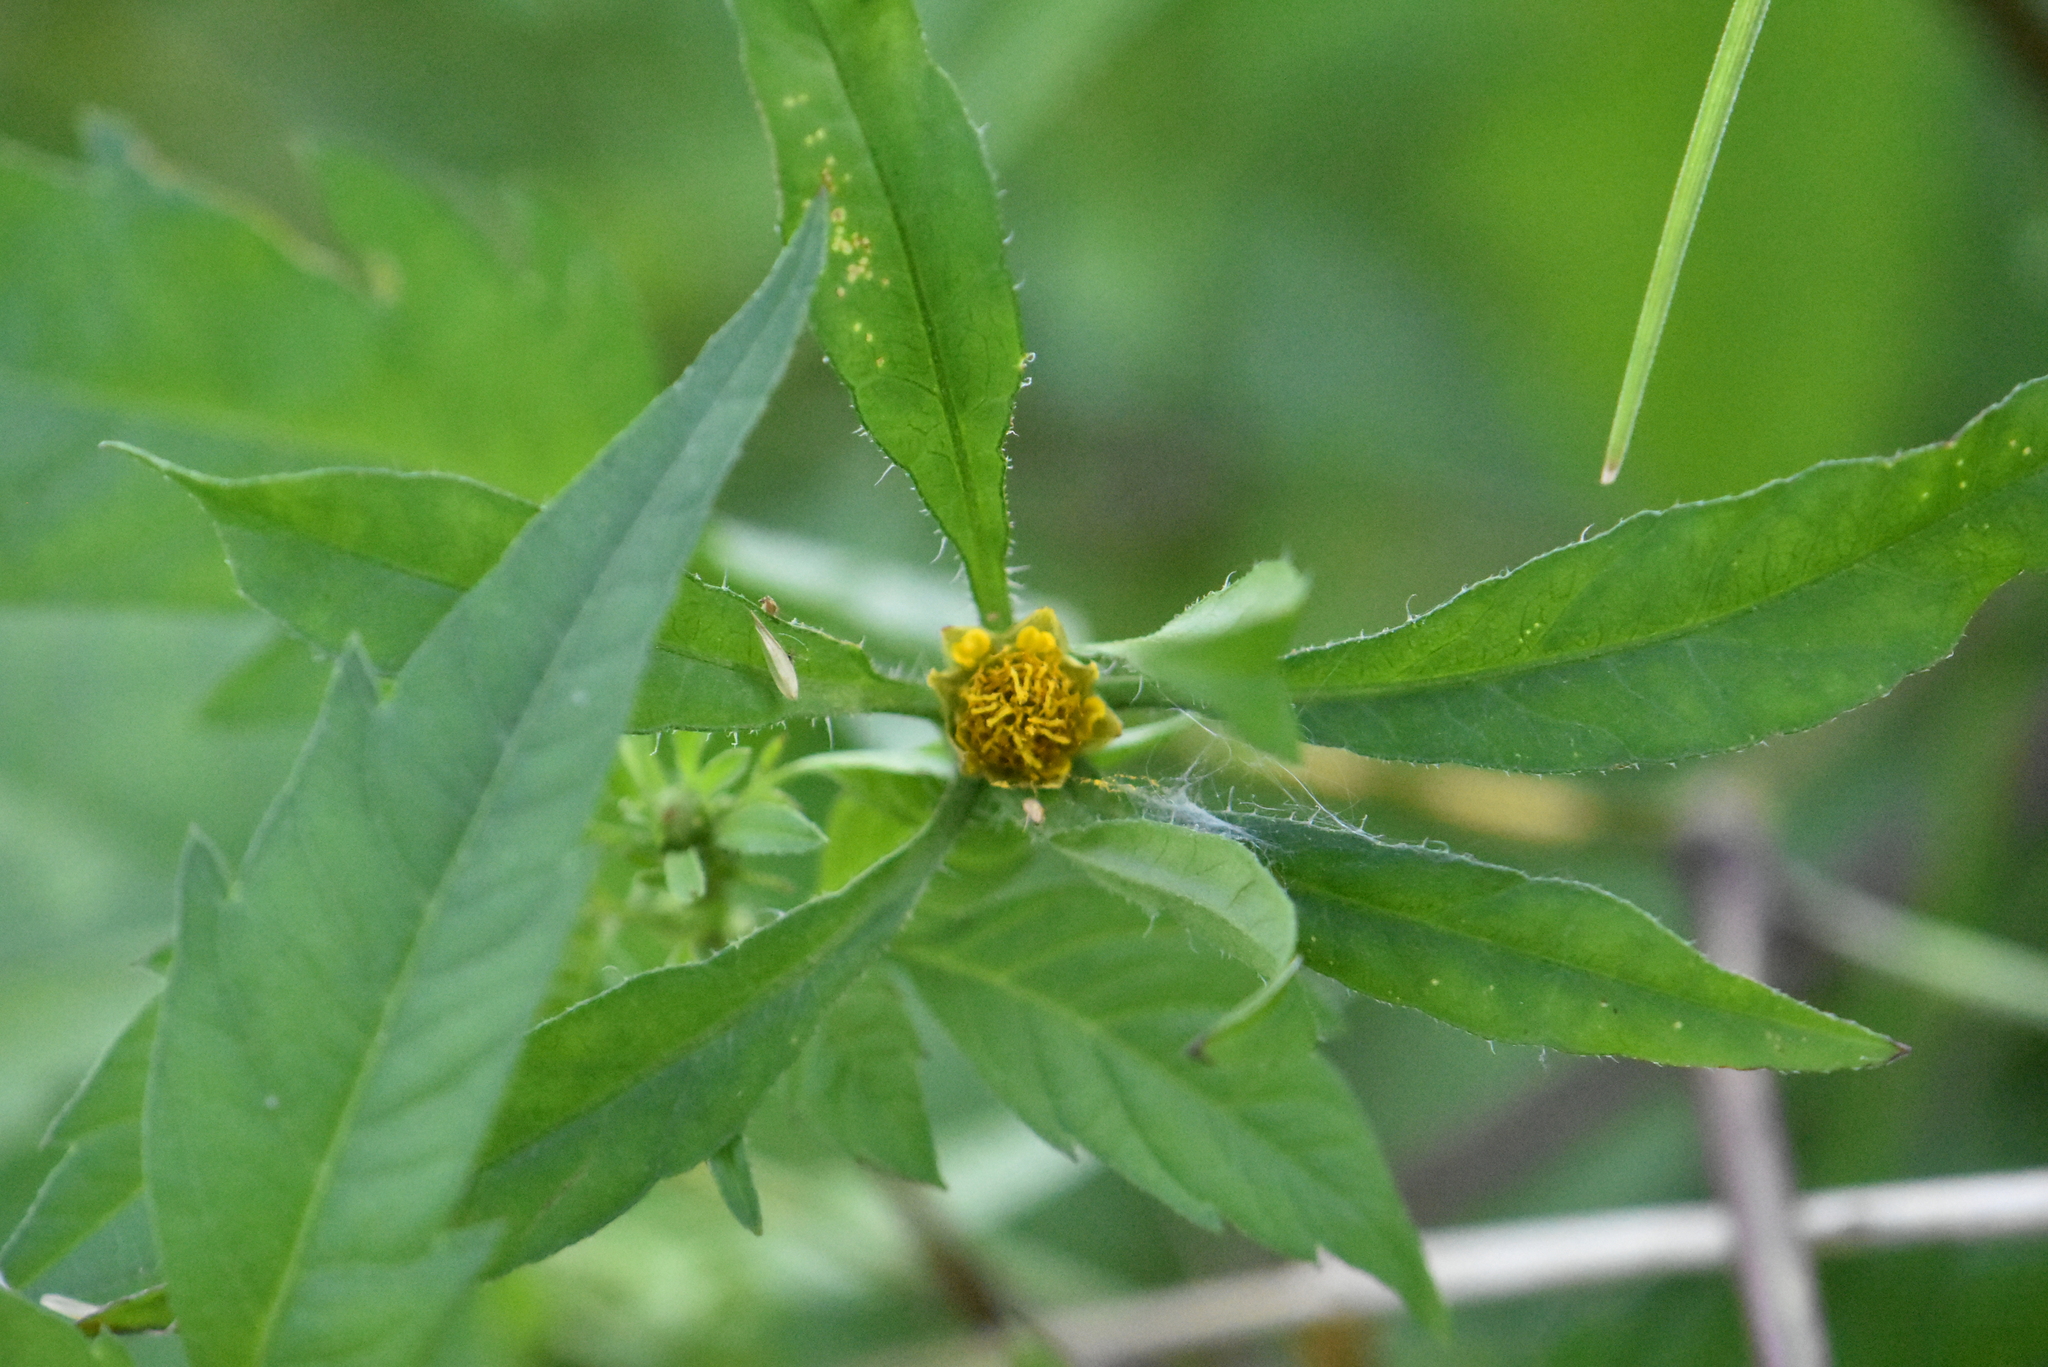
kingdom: Plantae
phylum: Tracheophyta
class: Magnoliopsida
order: Asterales
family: Asteraceae
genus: Bidens
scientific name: Bidens frondosa
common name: Beggarticks
